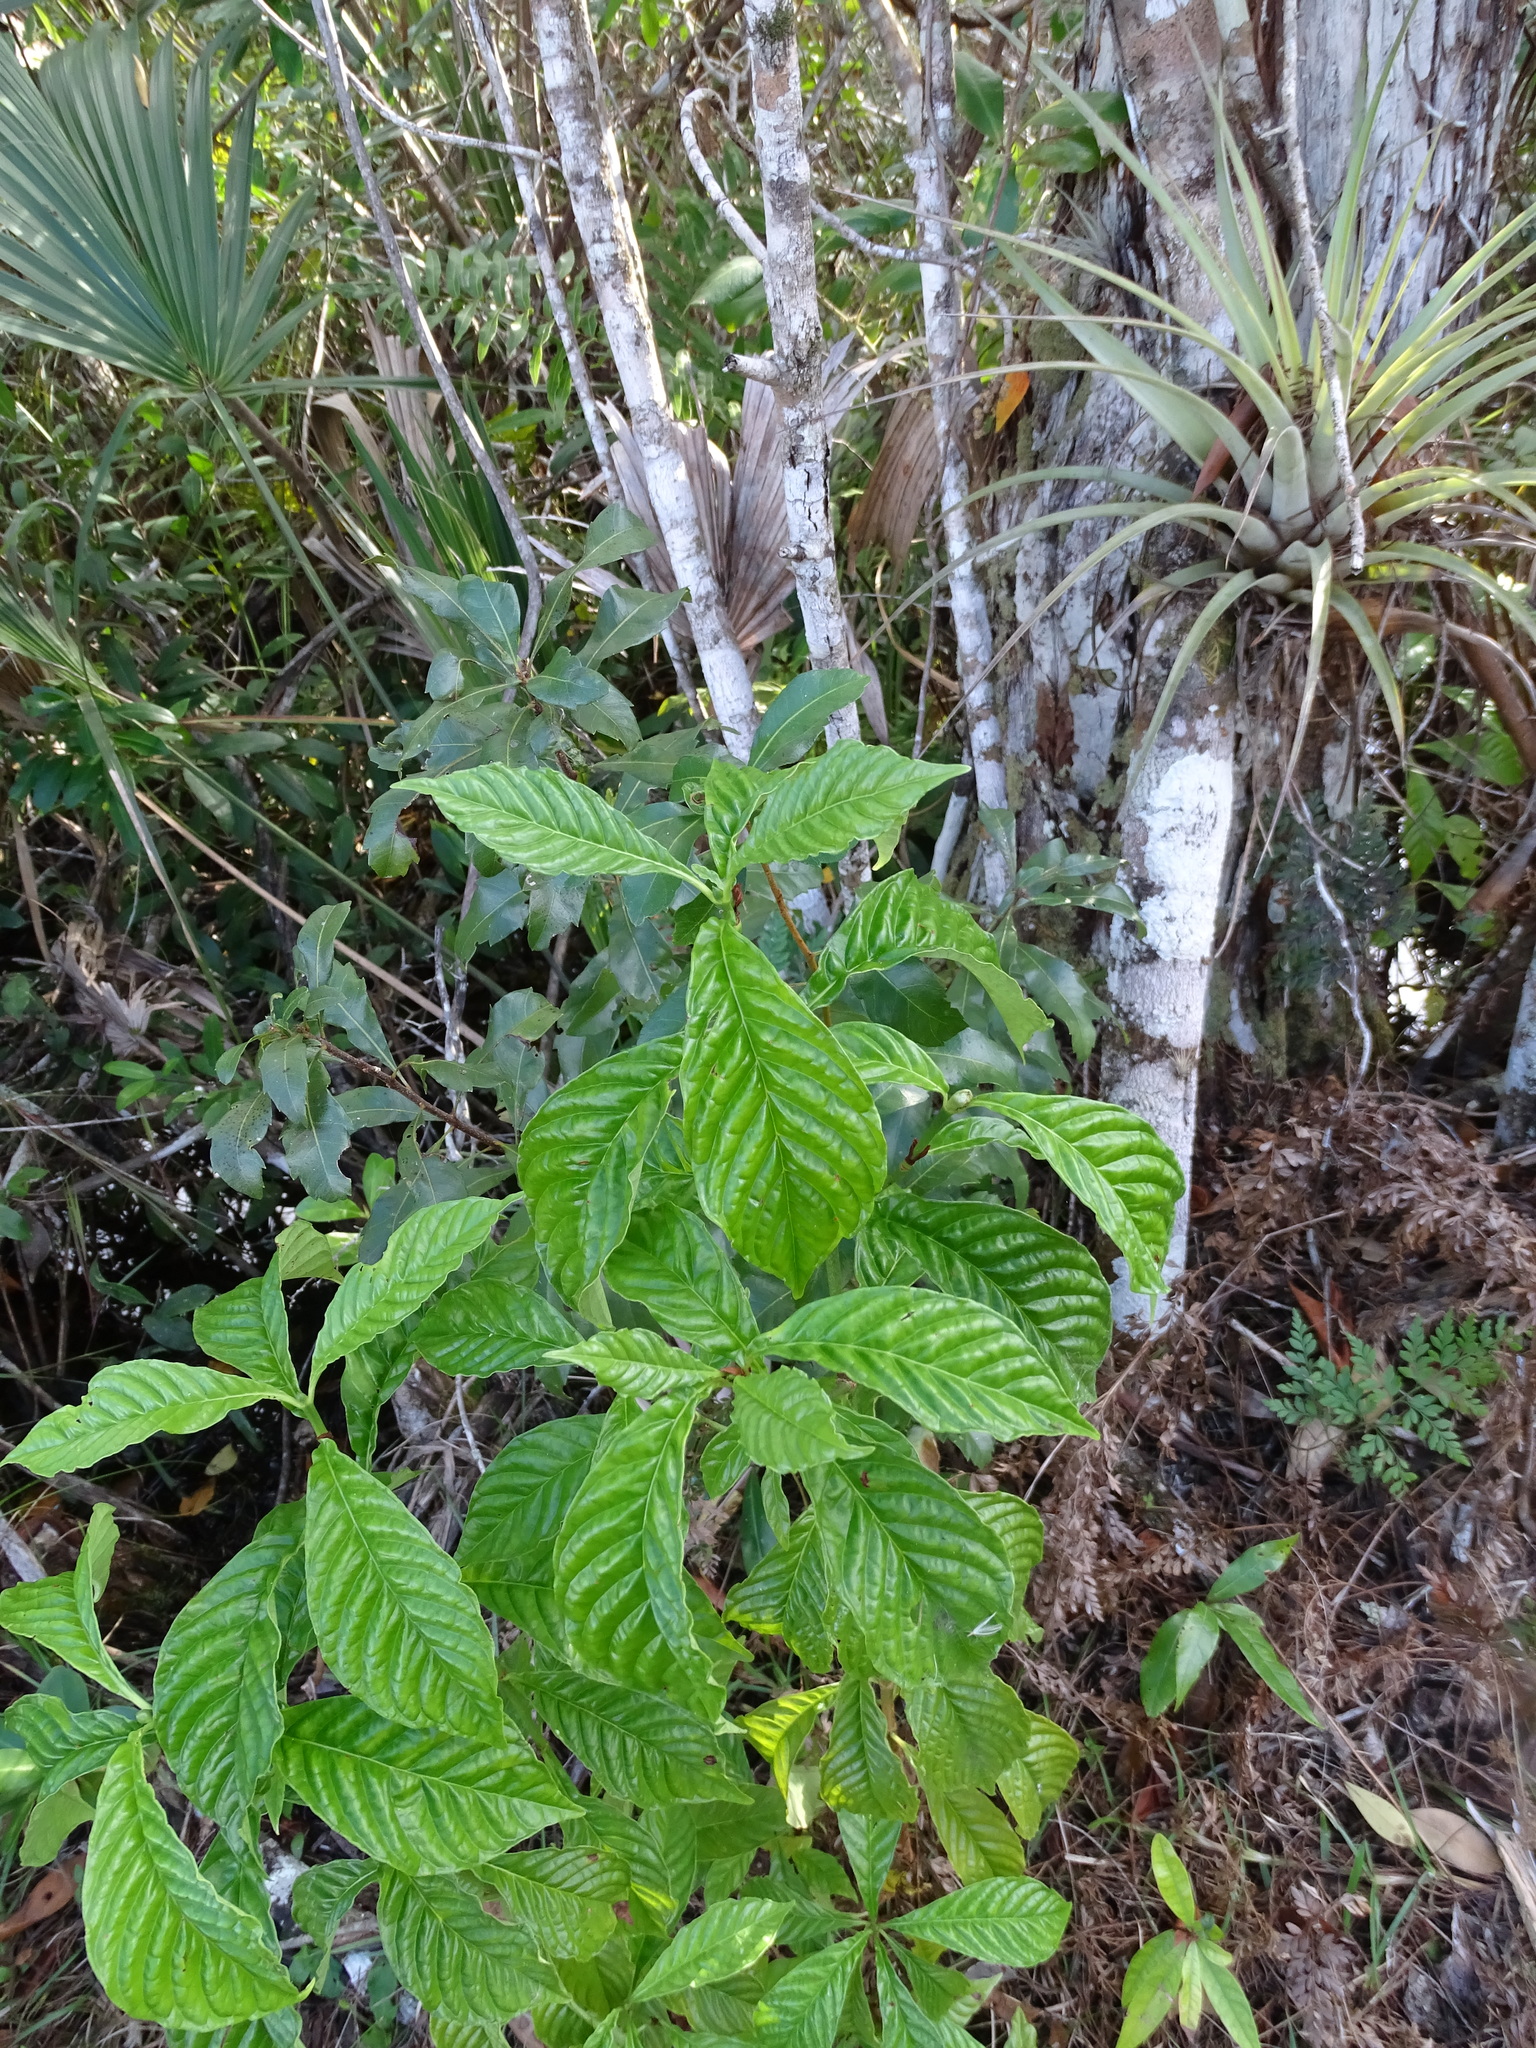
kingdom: Plantae
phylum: Tracheophyta
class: Magnoliopsida
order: Gentianales
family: Rubiaceae
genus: Psychotria
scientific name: Psychotria nervosa
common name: Bastard cankerberry
